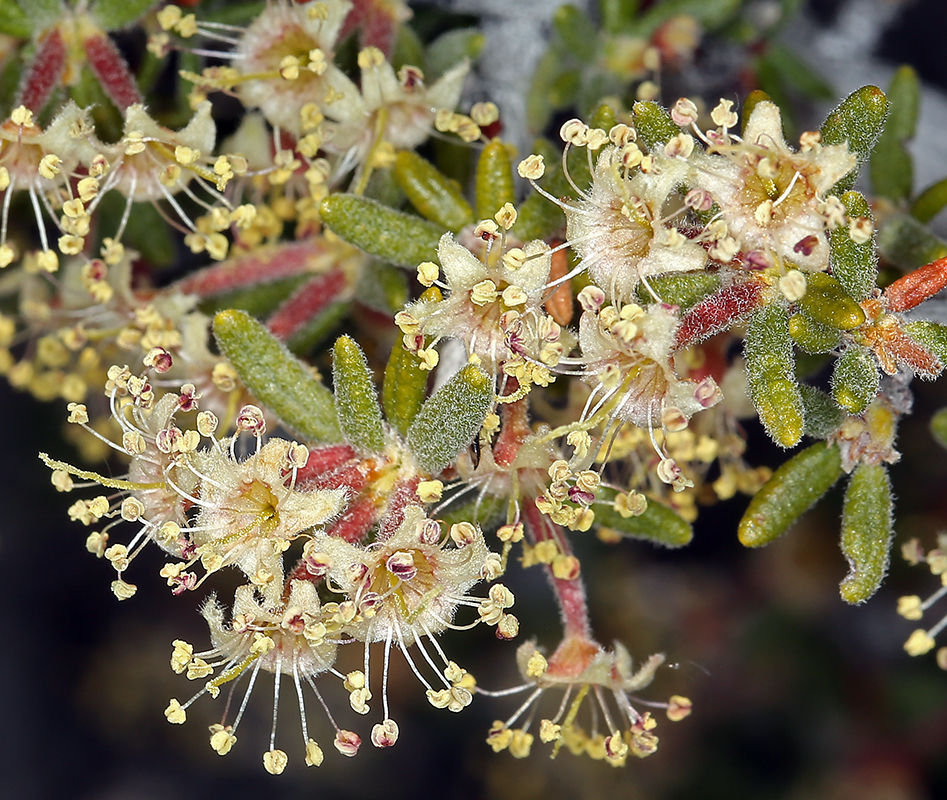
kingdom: Plantae
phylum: Tracheophyta
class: Magnoliopsida
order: Rosales
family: Rosaceae
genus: Cercocarpus
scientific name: Cercocarpus intricatus
